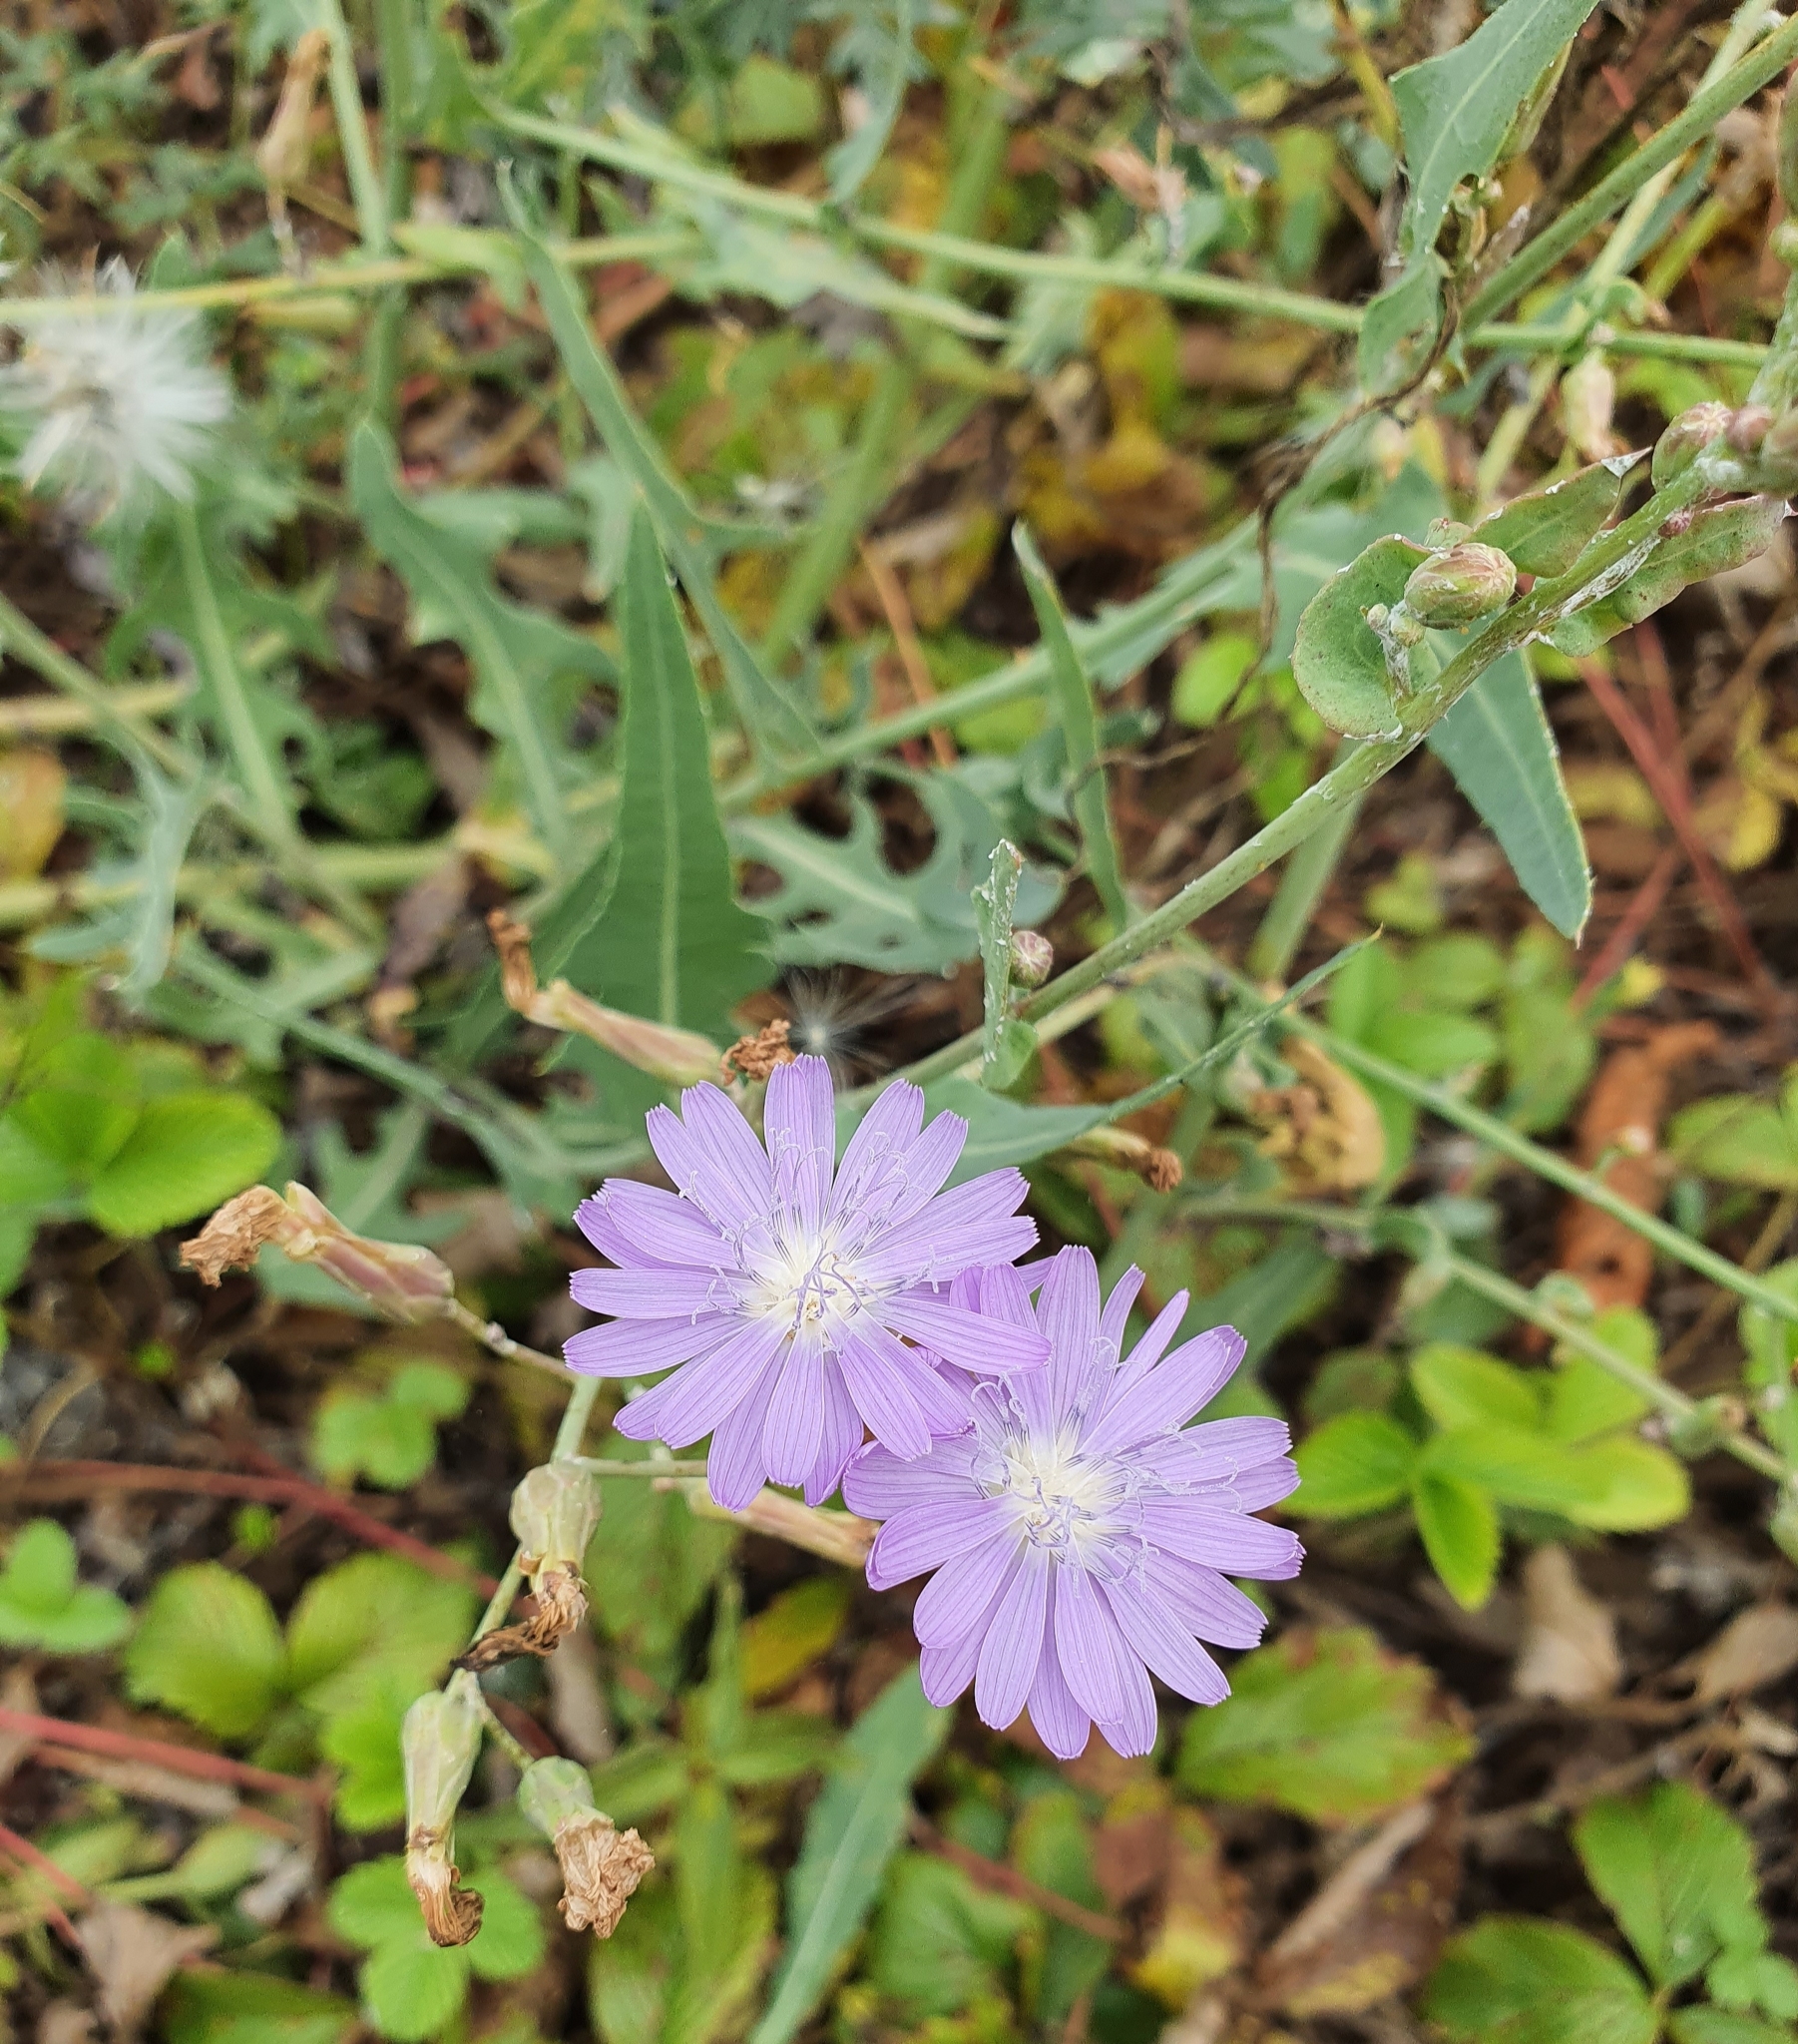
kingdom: Plantae
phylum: Tracheophyta
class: Magnoliopsida
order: Asterales
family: Asteraceae
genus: Lactuca
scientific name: Lactuca tatarica
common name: Blue lettuce
